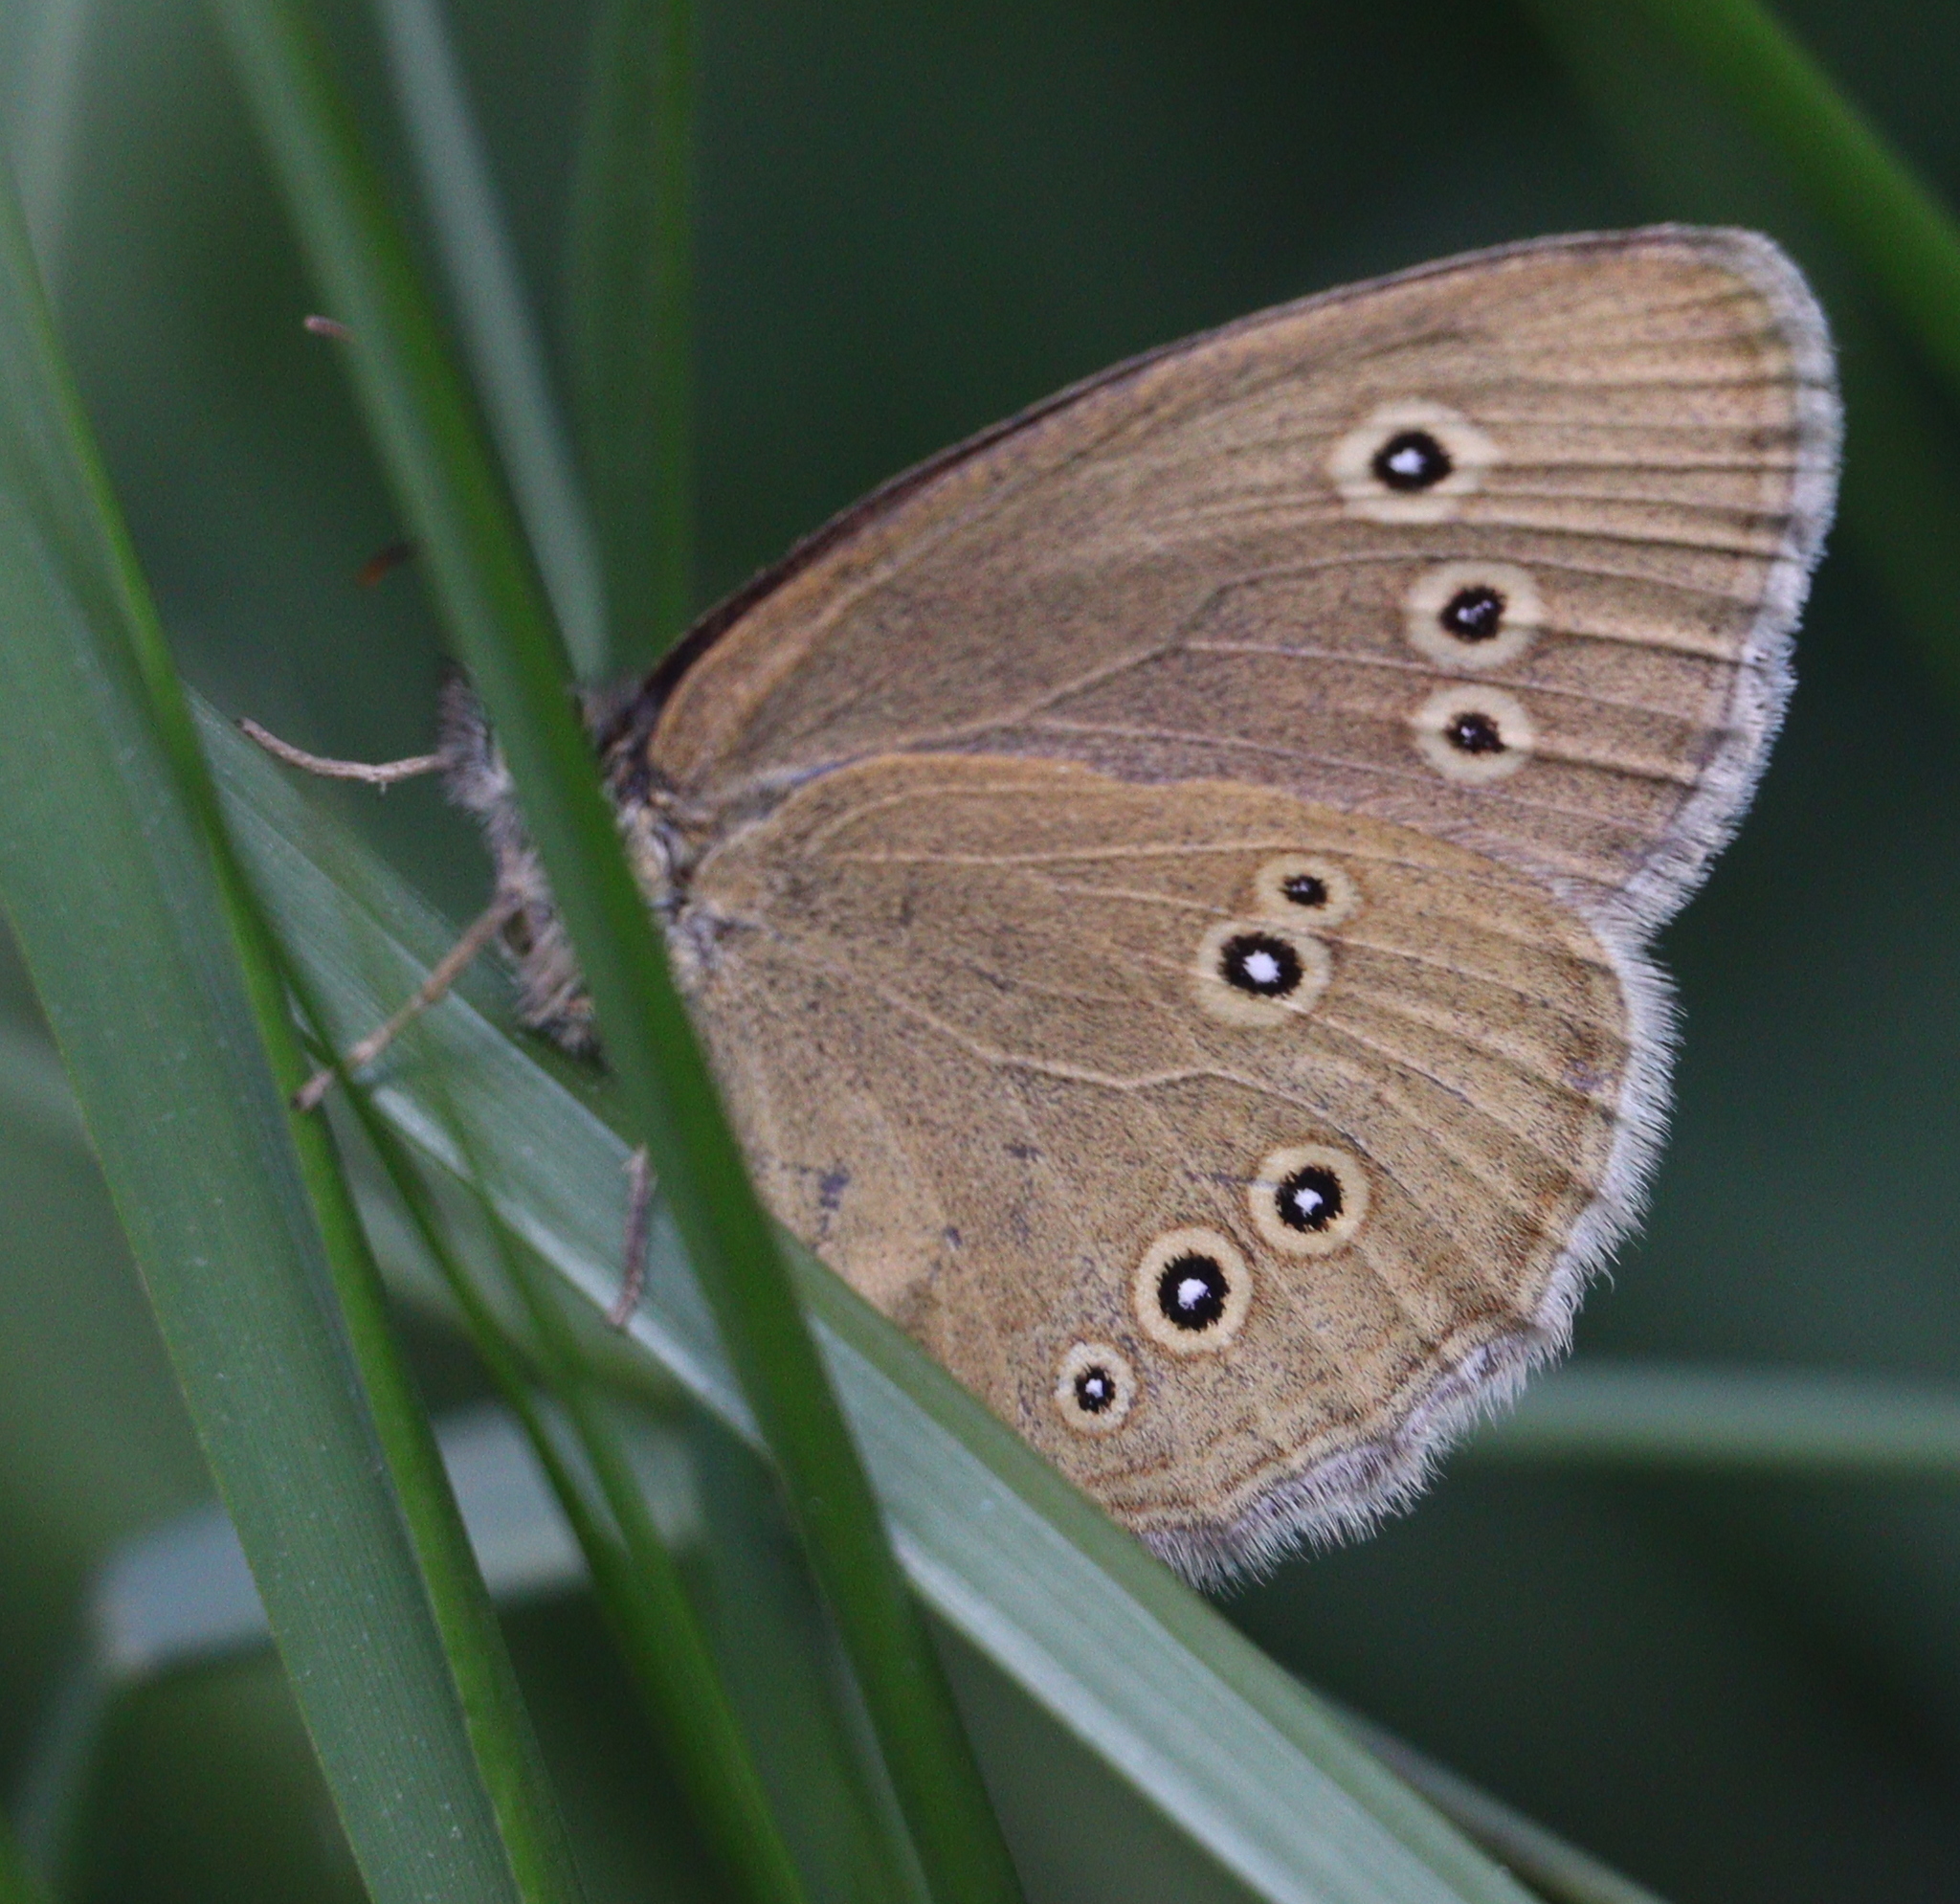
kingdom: Animalia
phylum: Arthropoda
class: Insecta
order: Lepidoptera
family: Nymphalidae
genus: Aphantopus
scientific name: Aphantopus hyperantus
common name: Ringlet
